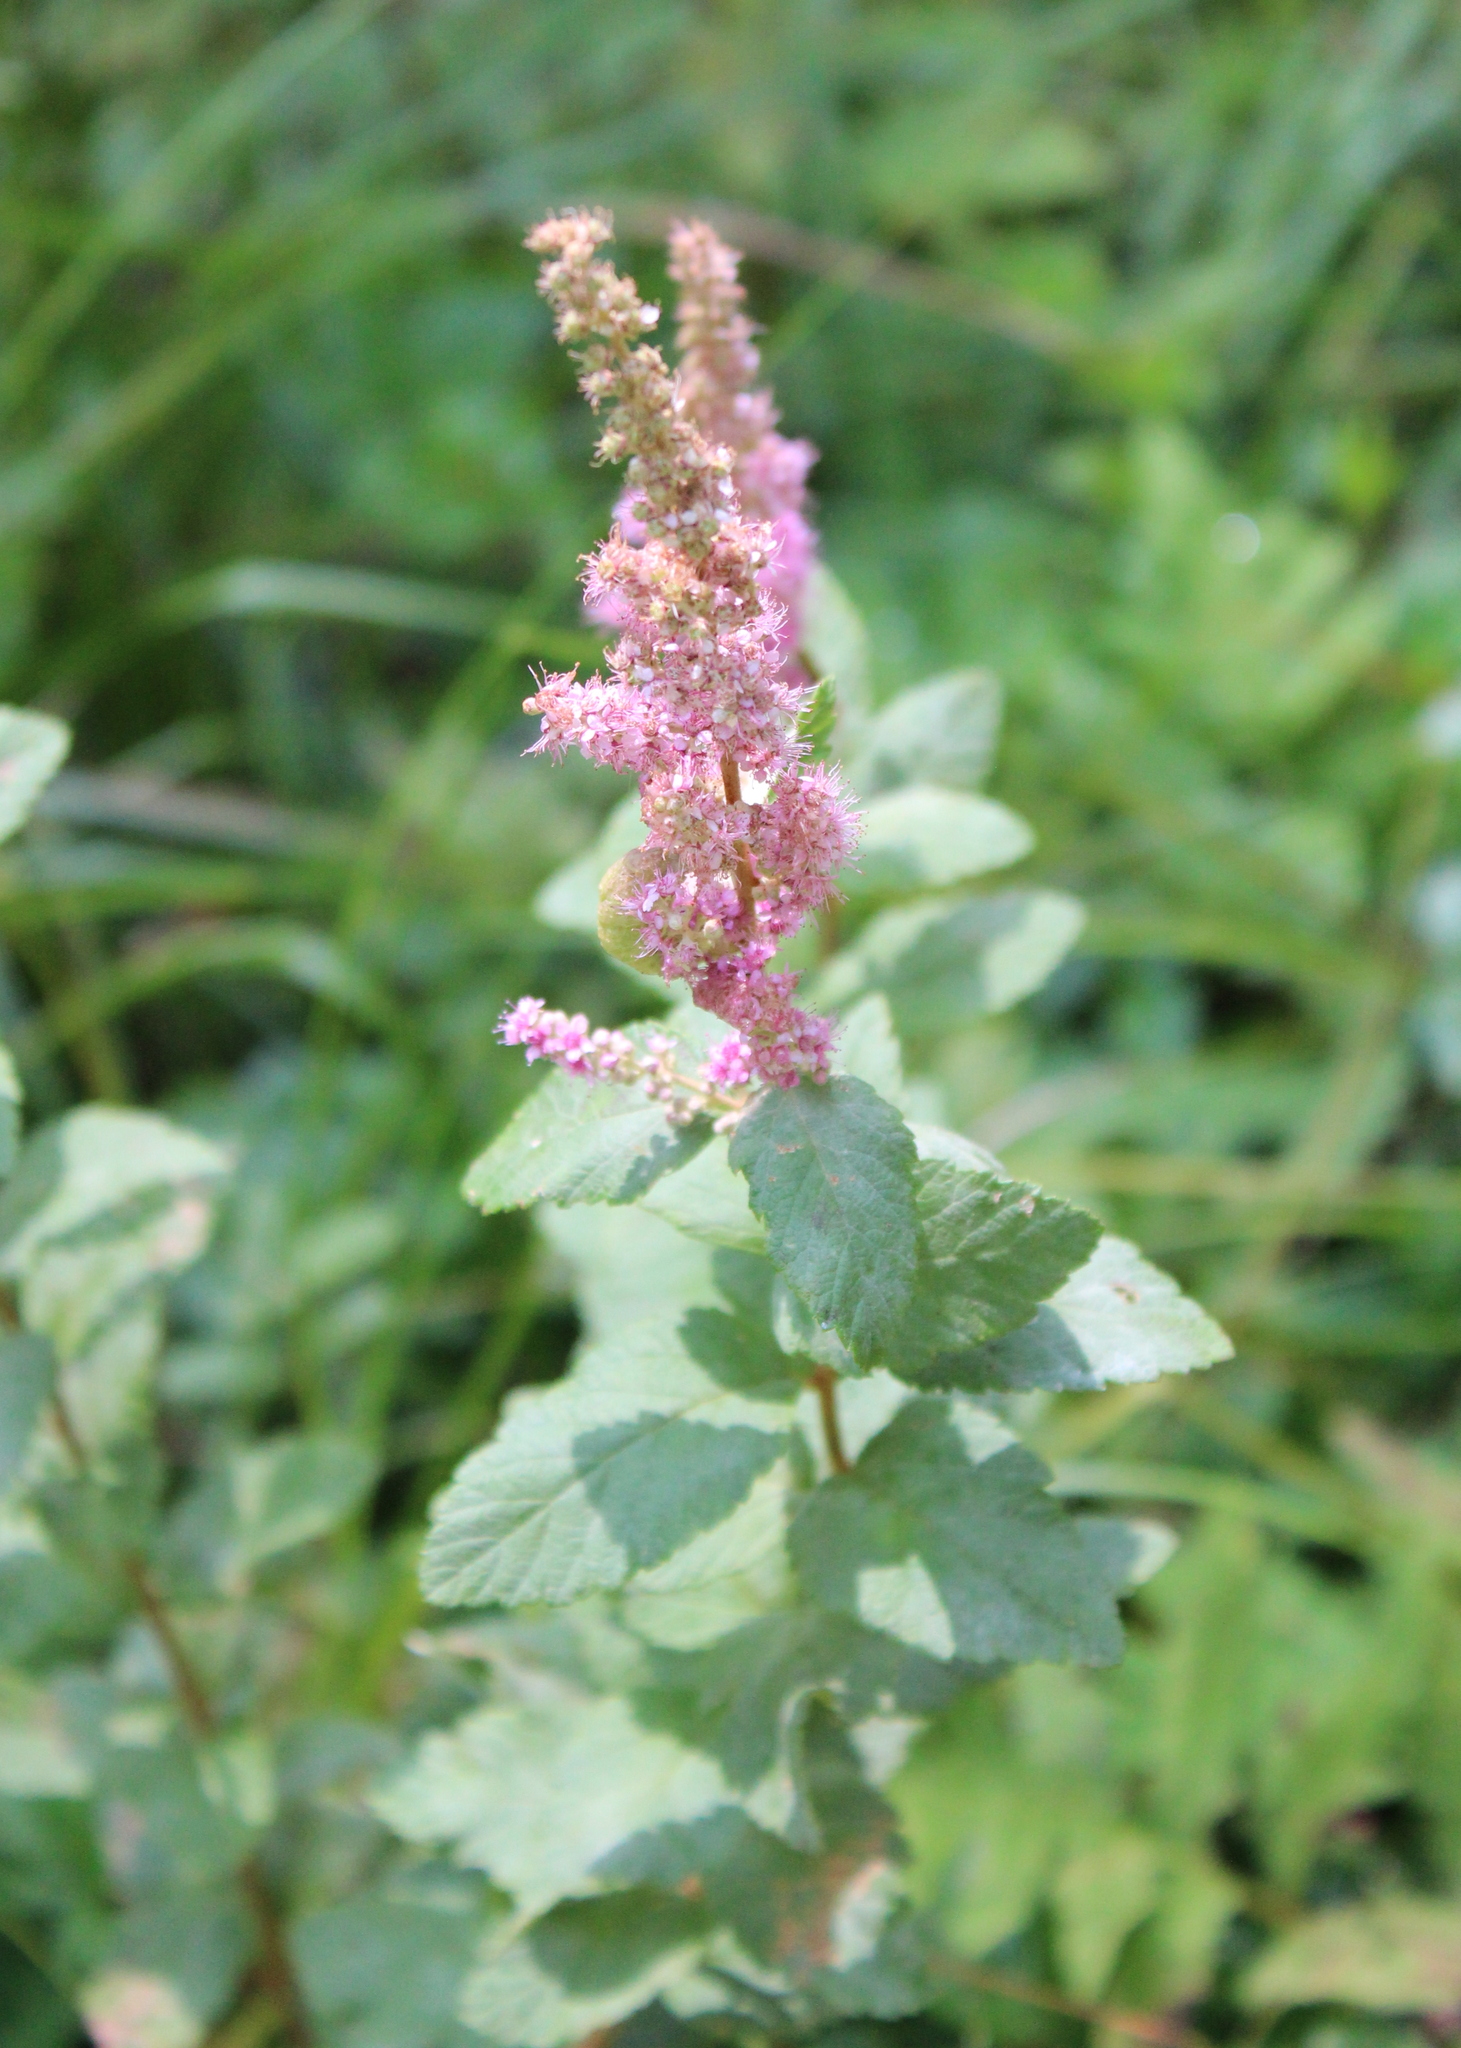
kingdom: Plantae
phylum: Tracheophyta
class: Magnoliopsida
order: Rosales
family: Rosaceae
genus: Spiraea
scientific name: Spiraea tomentosa
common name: Hardhack
